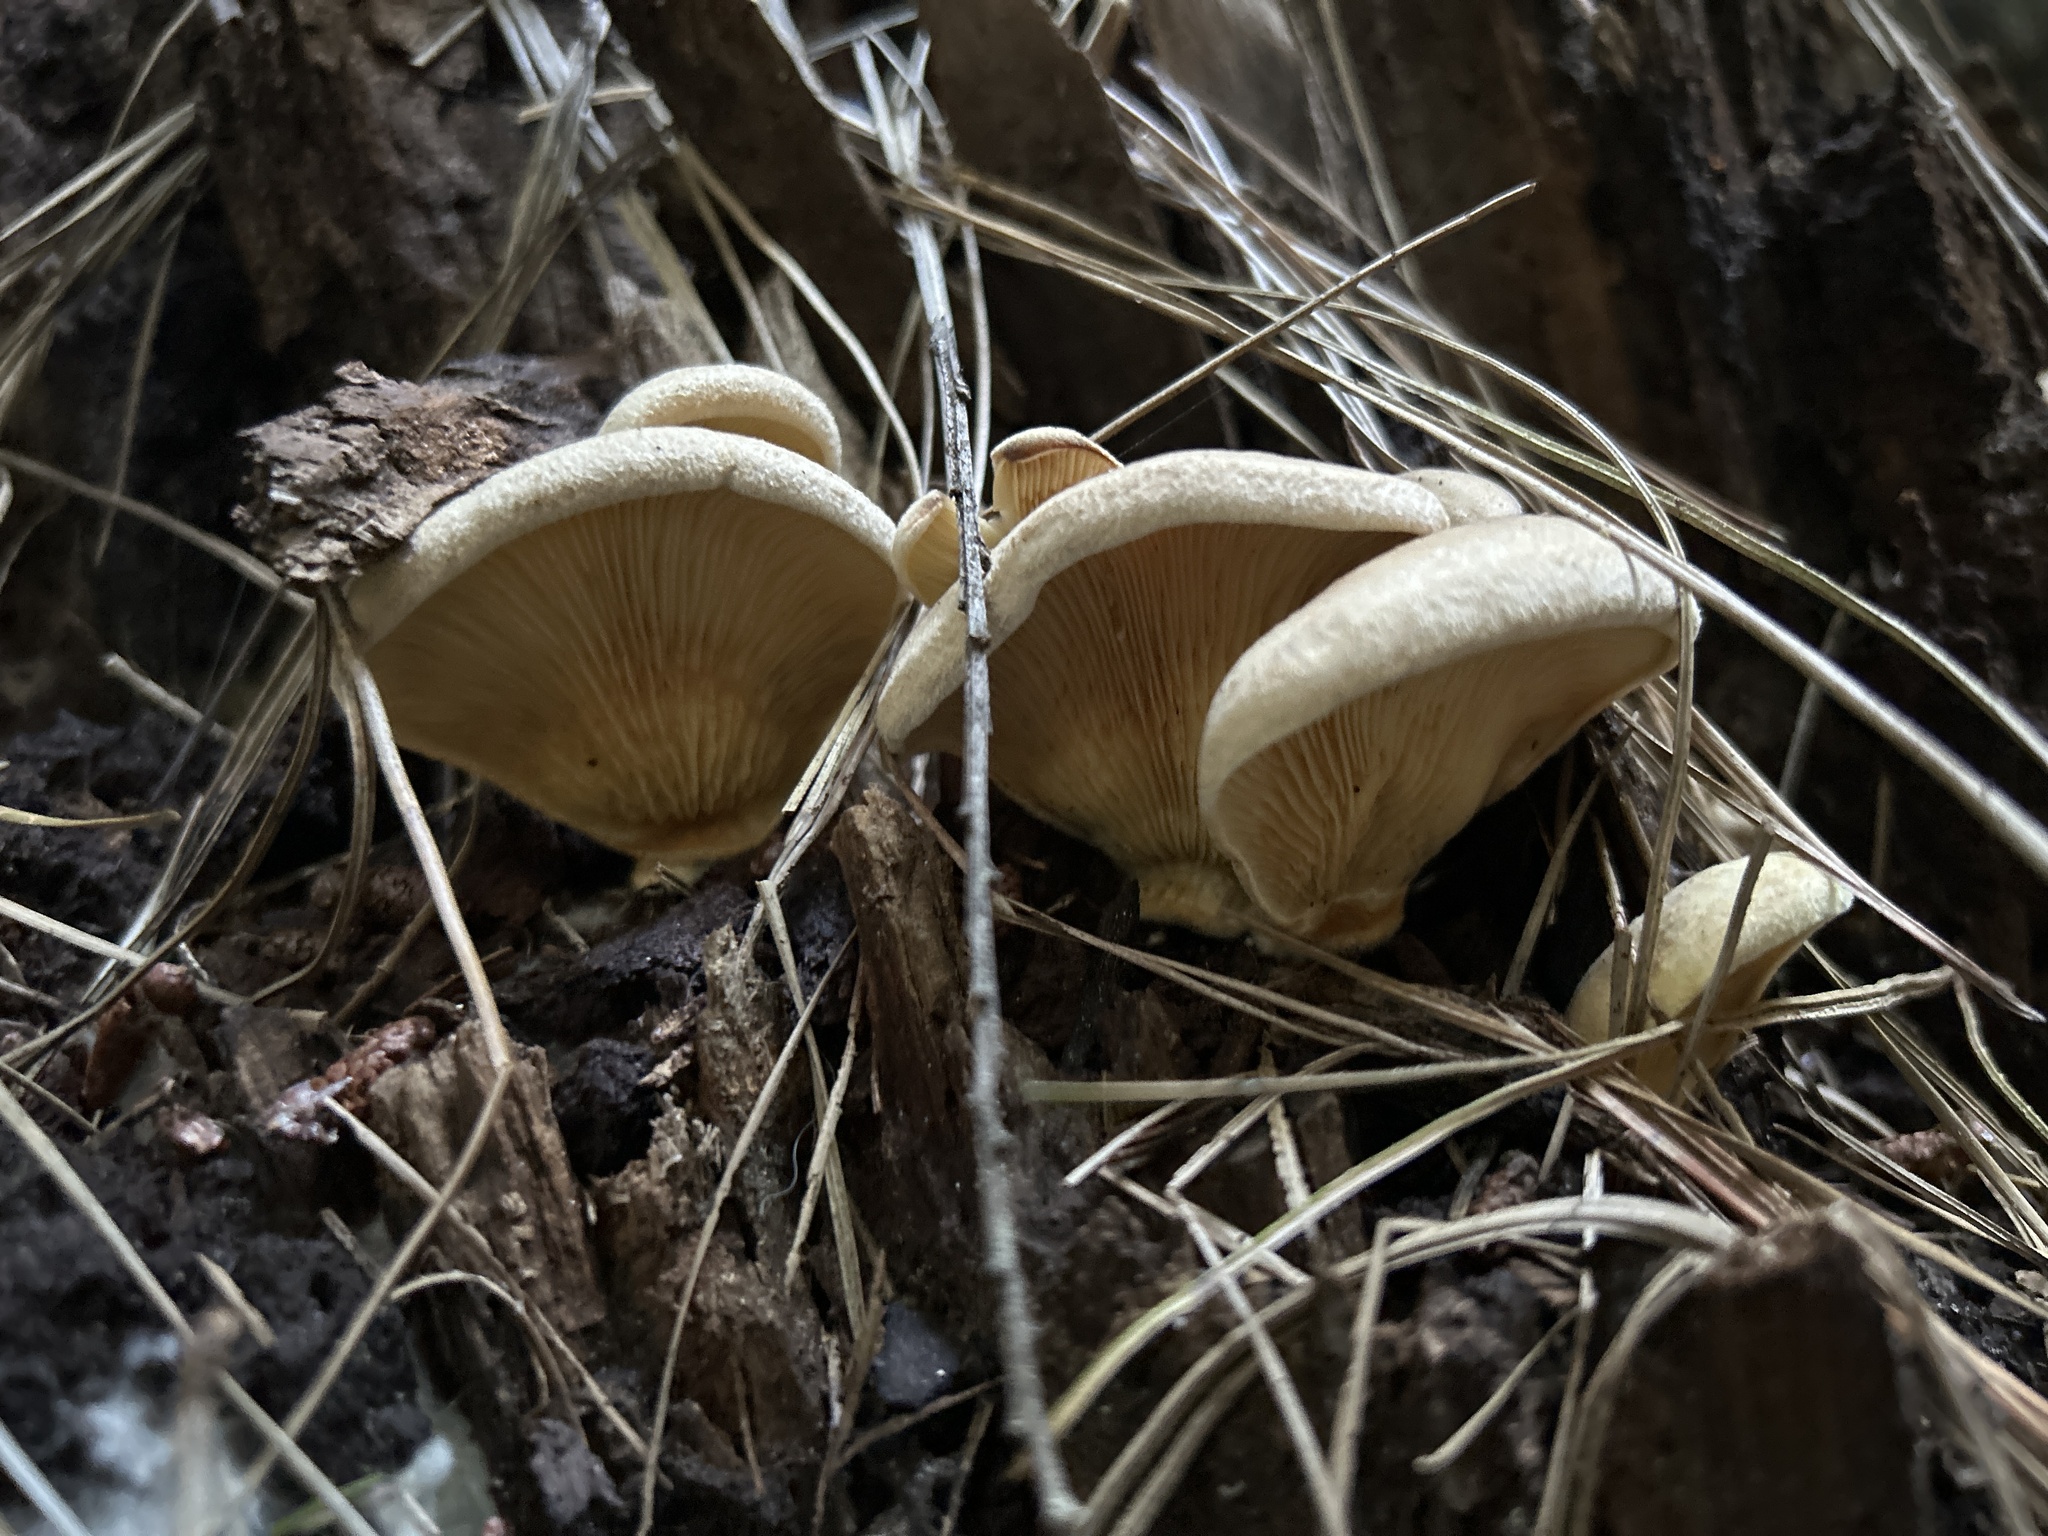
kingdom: Fungi
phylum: Basidiomycota
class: Agaricomycetes
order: Boletales
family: Tapinellaceae
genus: Tapinella
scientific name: Tapinella panuoides
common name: Oyster rollrim
